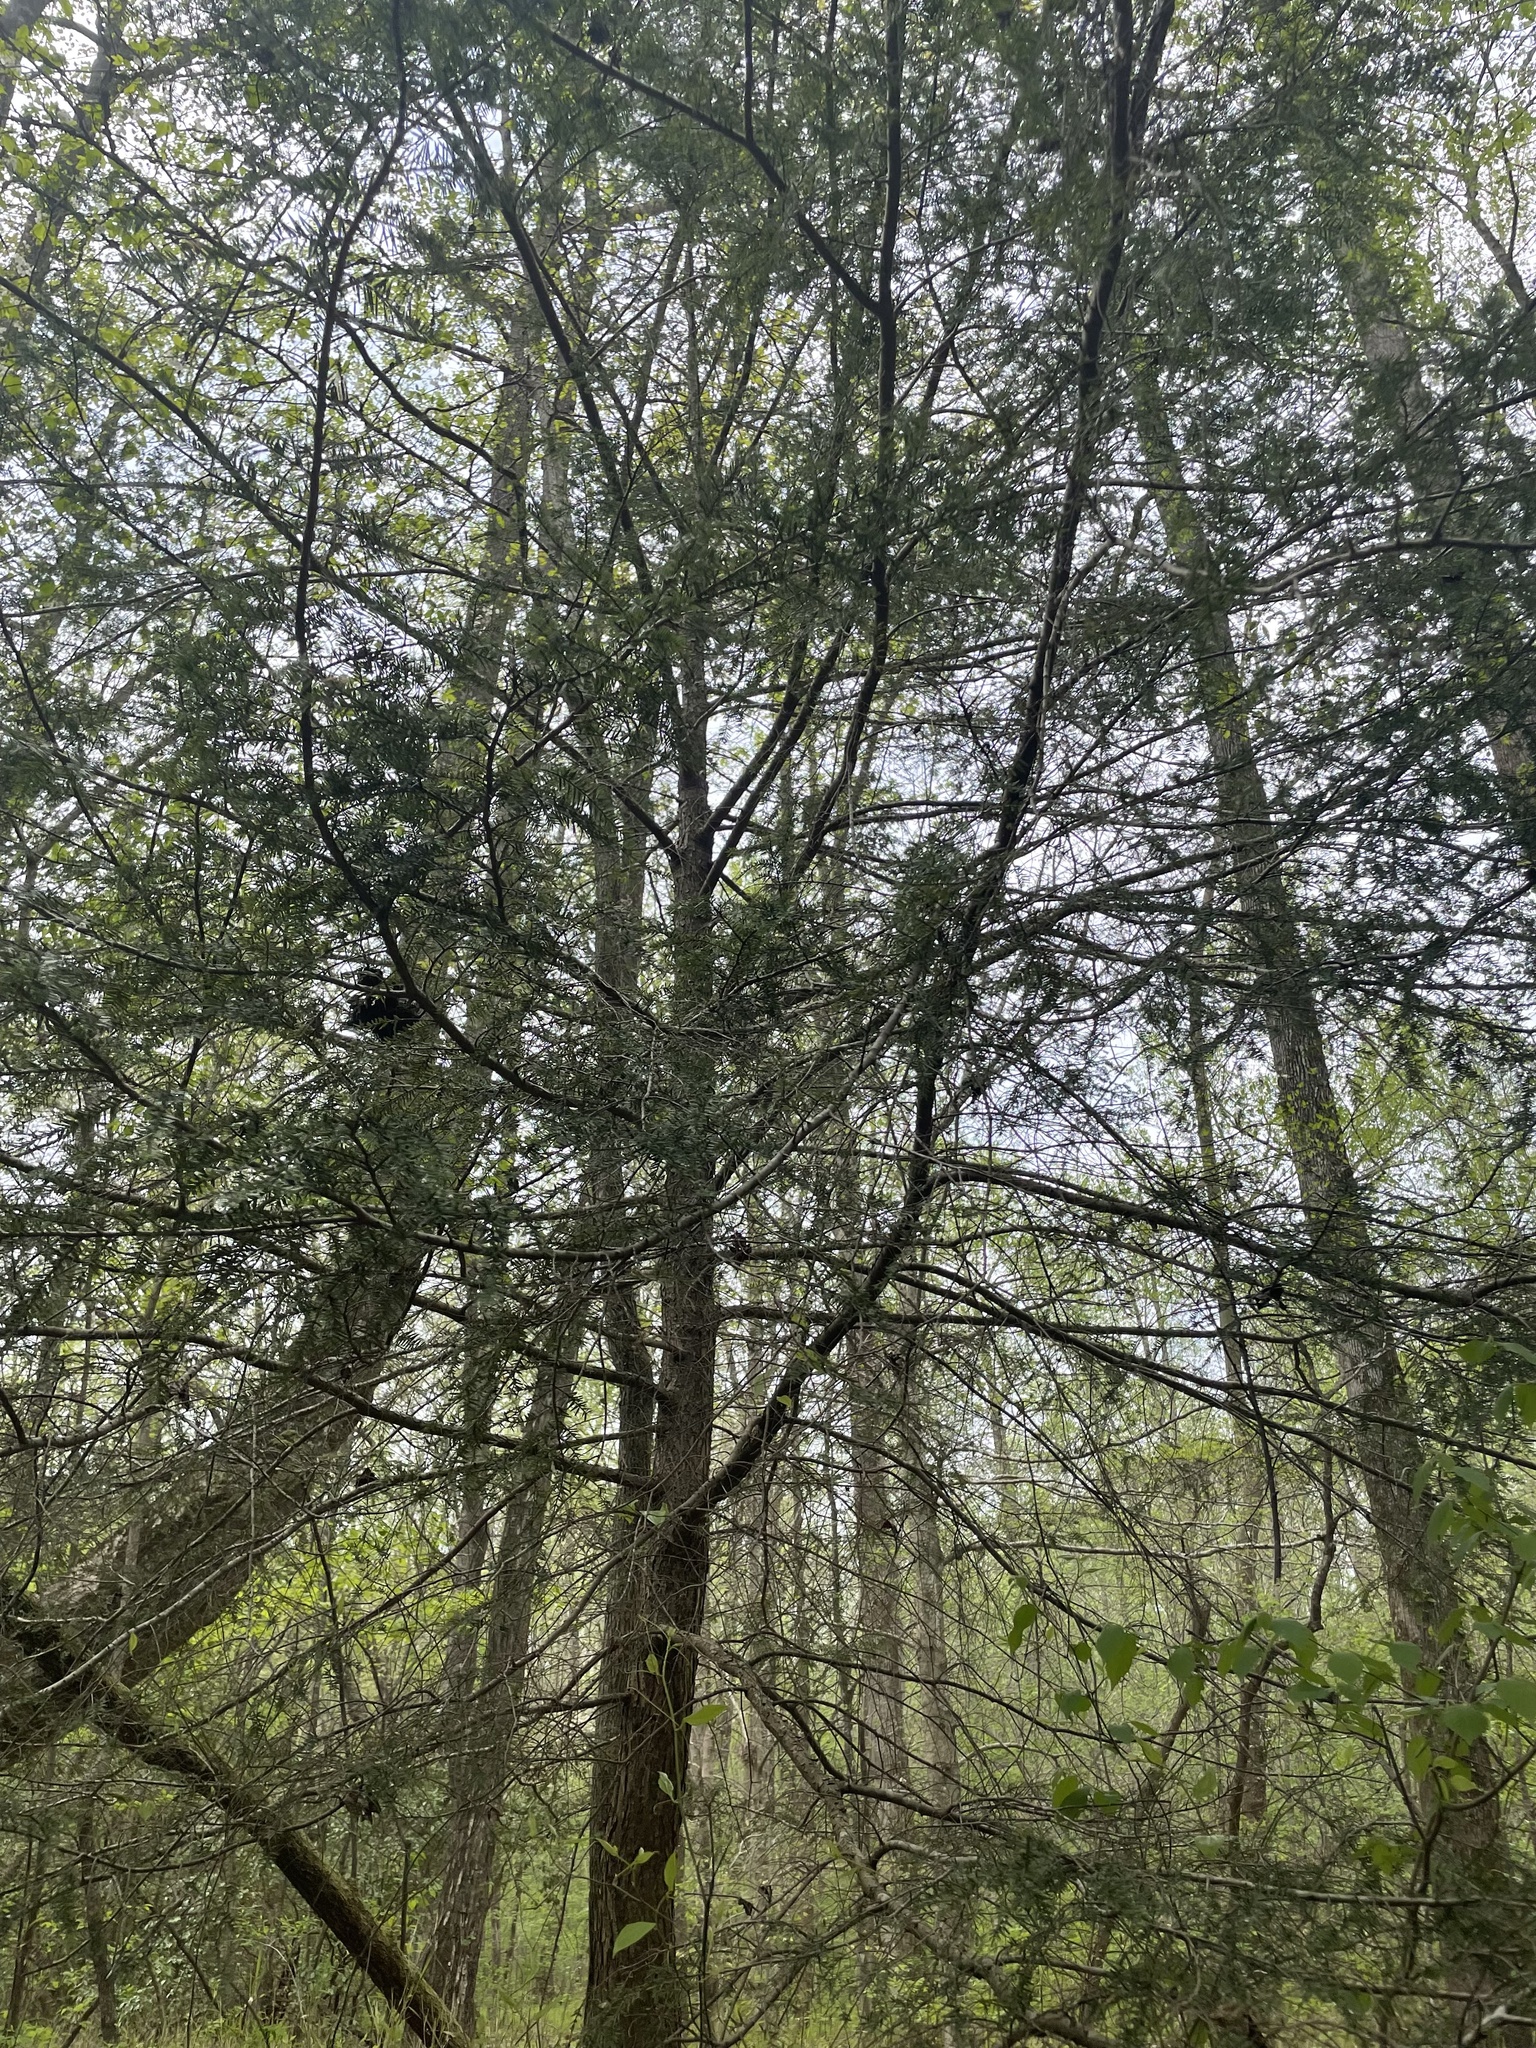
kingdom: Plantae
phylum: Tracheophyta
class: Pinopsida
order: Pinales
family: Pinaceae
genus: Tsuga
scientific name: Tsuga canadensis
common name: Eastern hemlock
